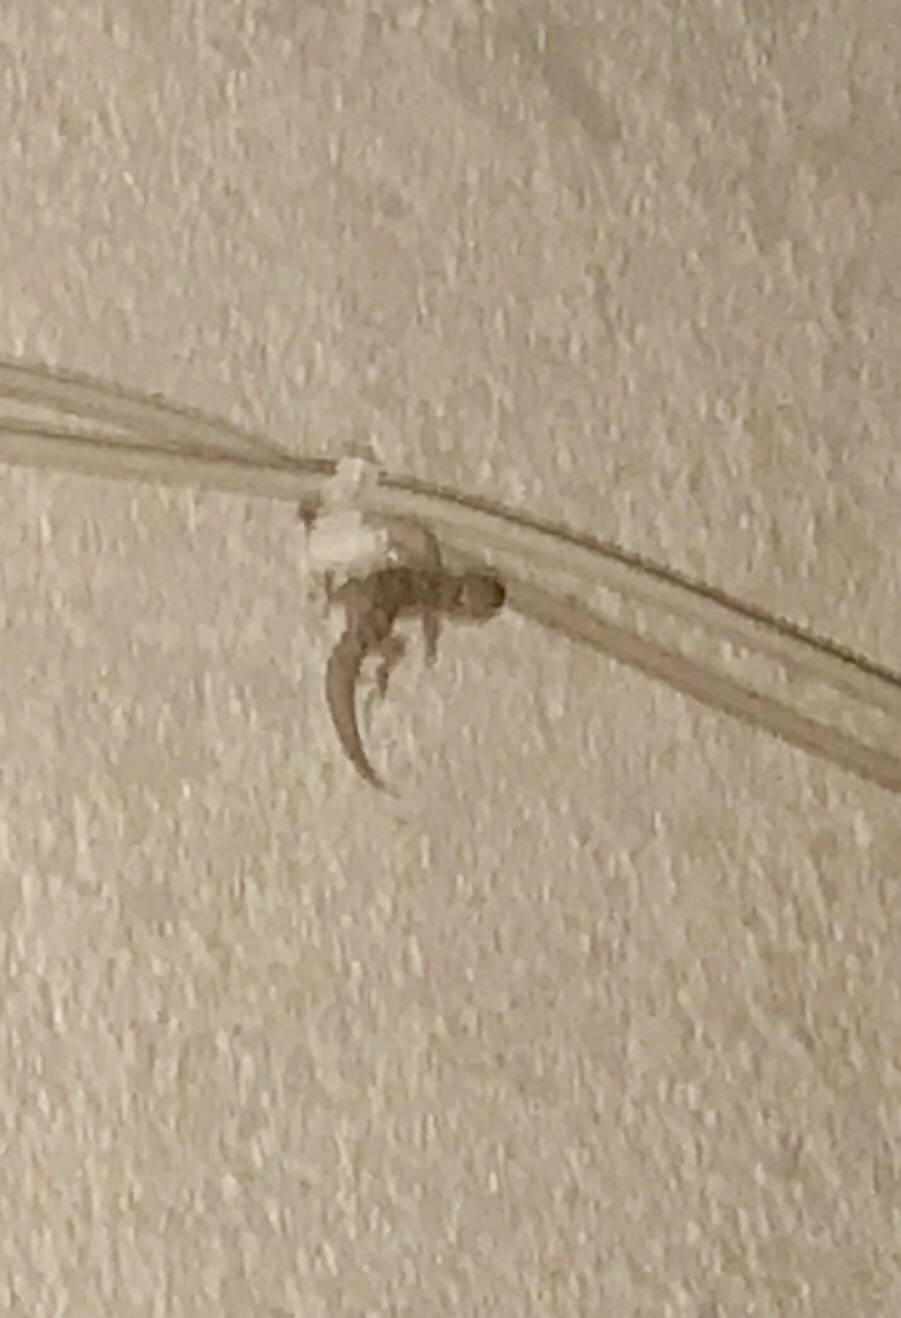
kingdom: Animalia
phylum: Chordata
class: Squamata
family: Gekkonidae
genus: Hemidactylus
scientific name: Hemidactylus turcicus
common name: Turkish gecko
